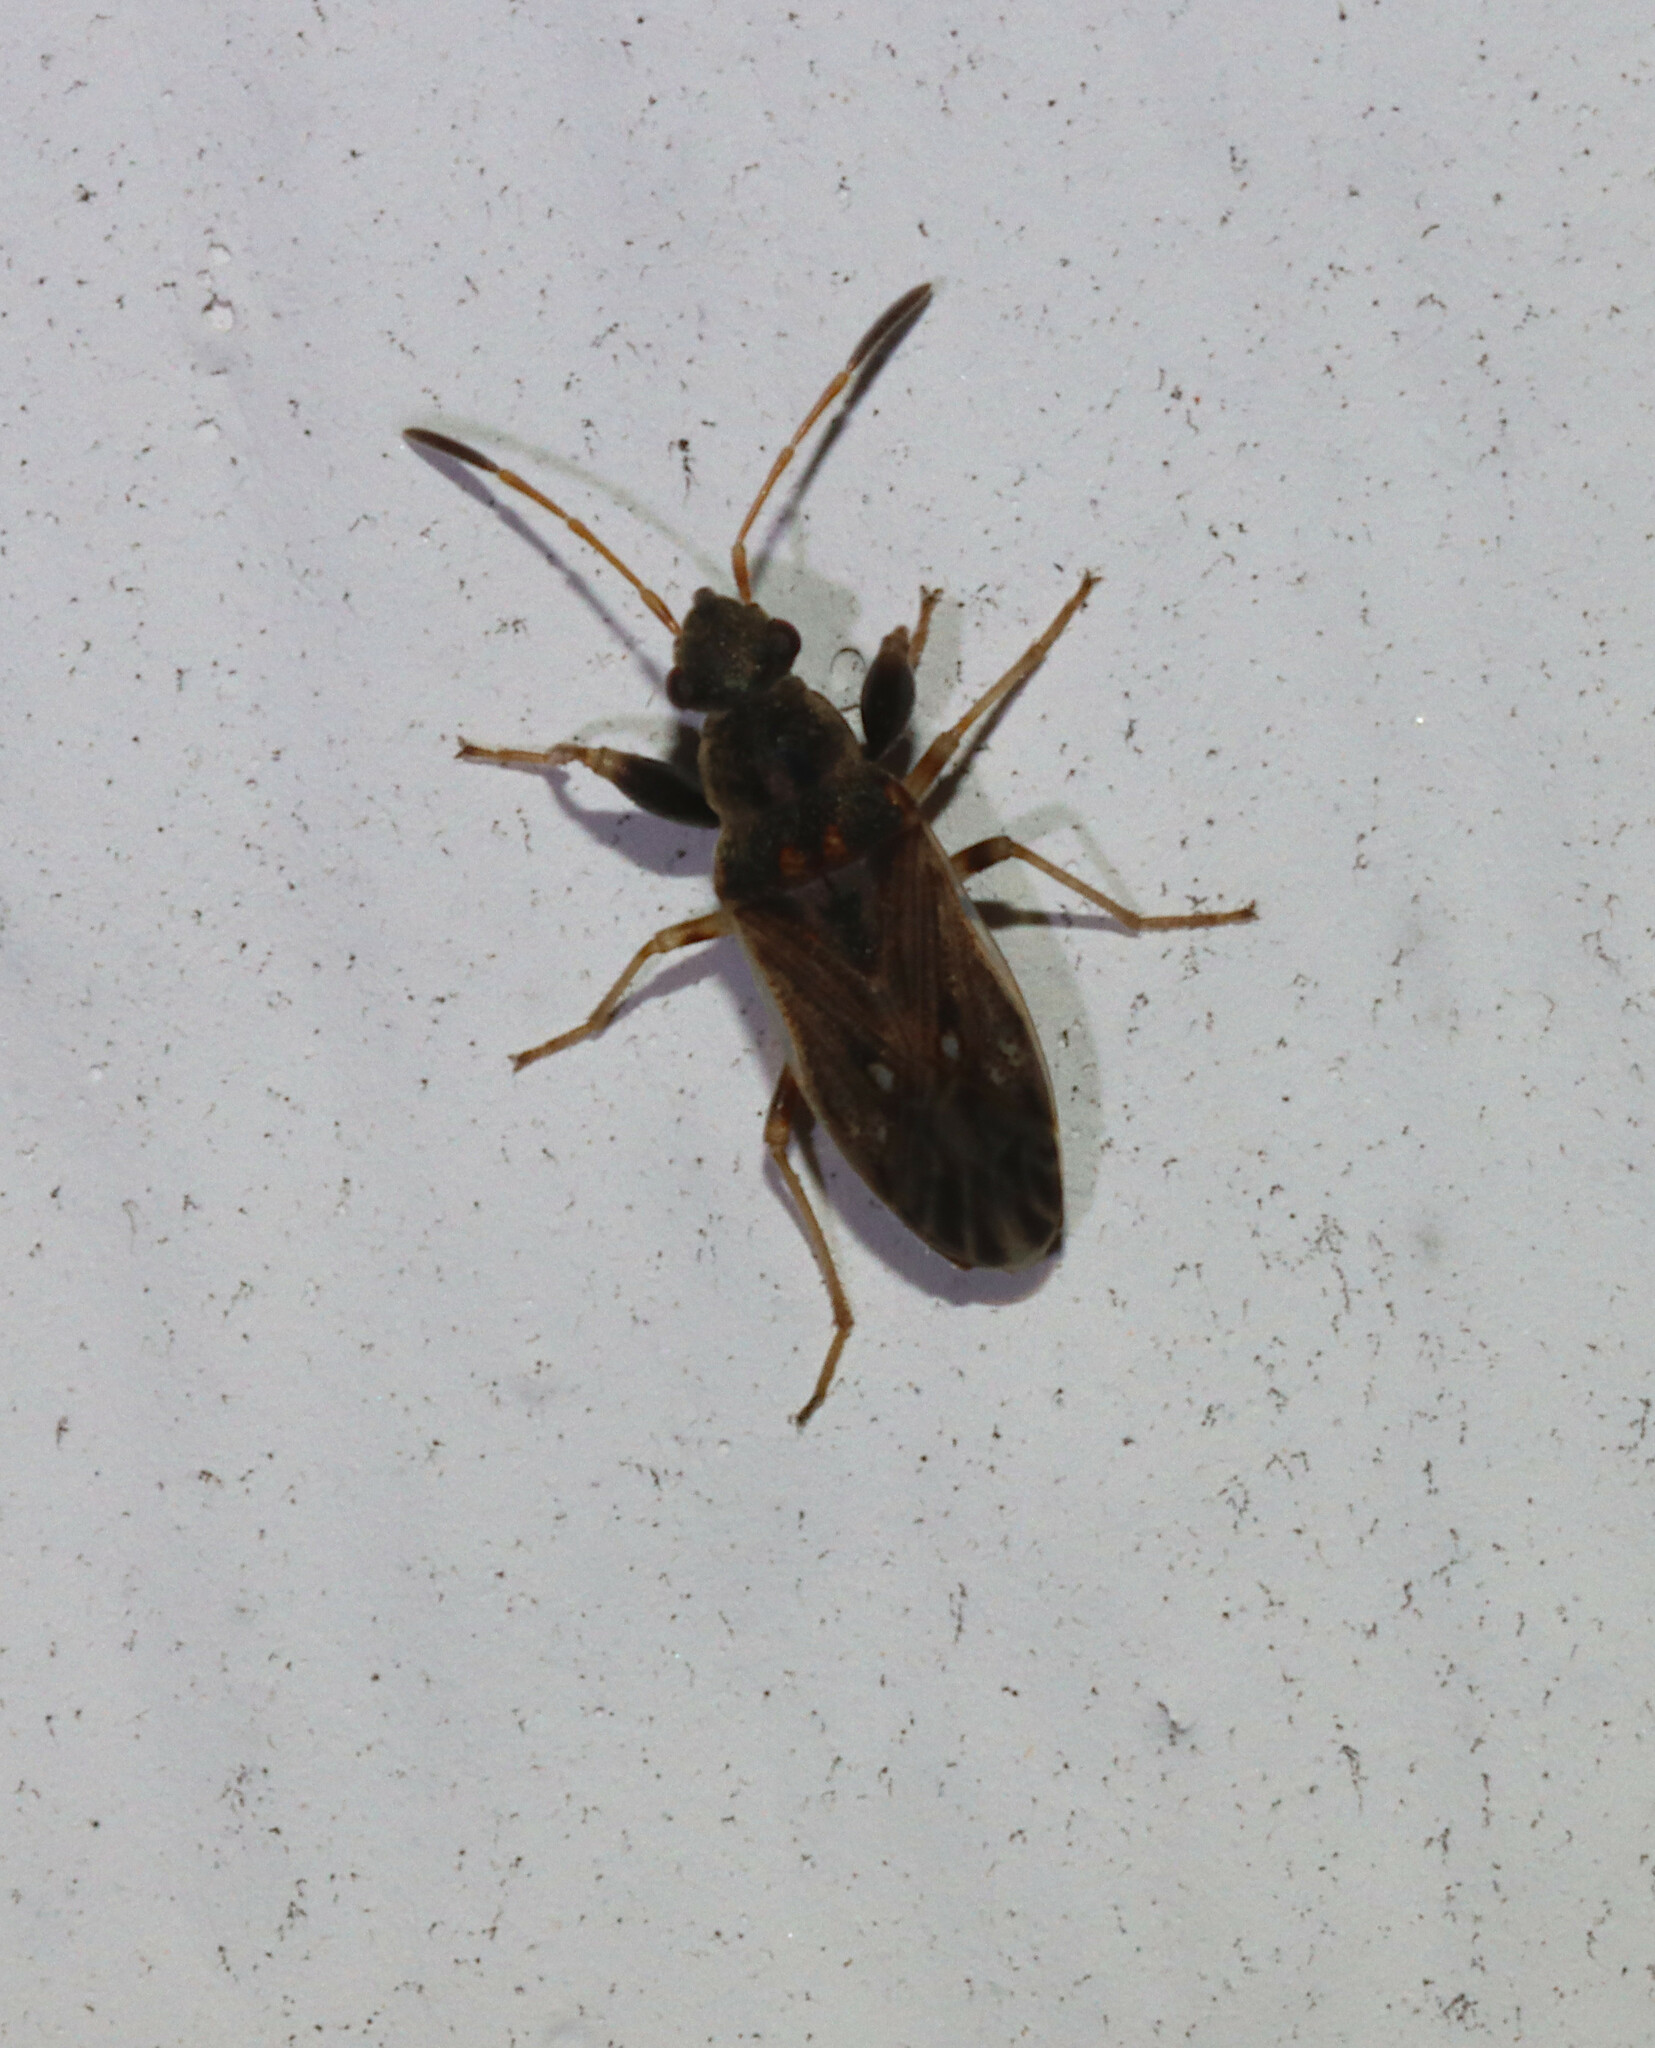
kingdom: Animalia
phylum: Arthropoda
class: Insecta
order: Hemiptera
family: Rhyparochromidae
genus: Pseudopachybrachius
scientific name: Pseudopachybrachius basalis
